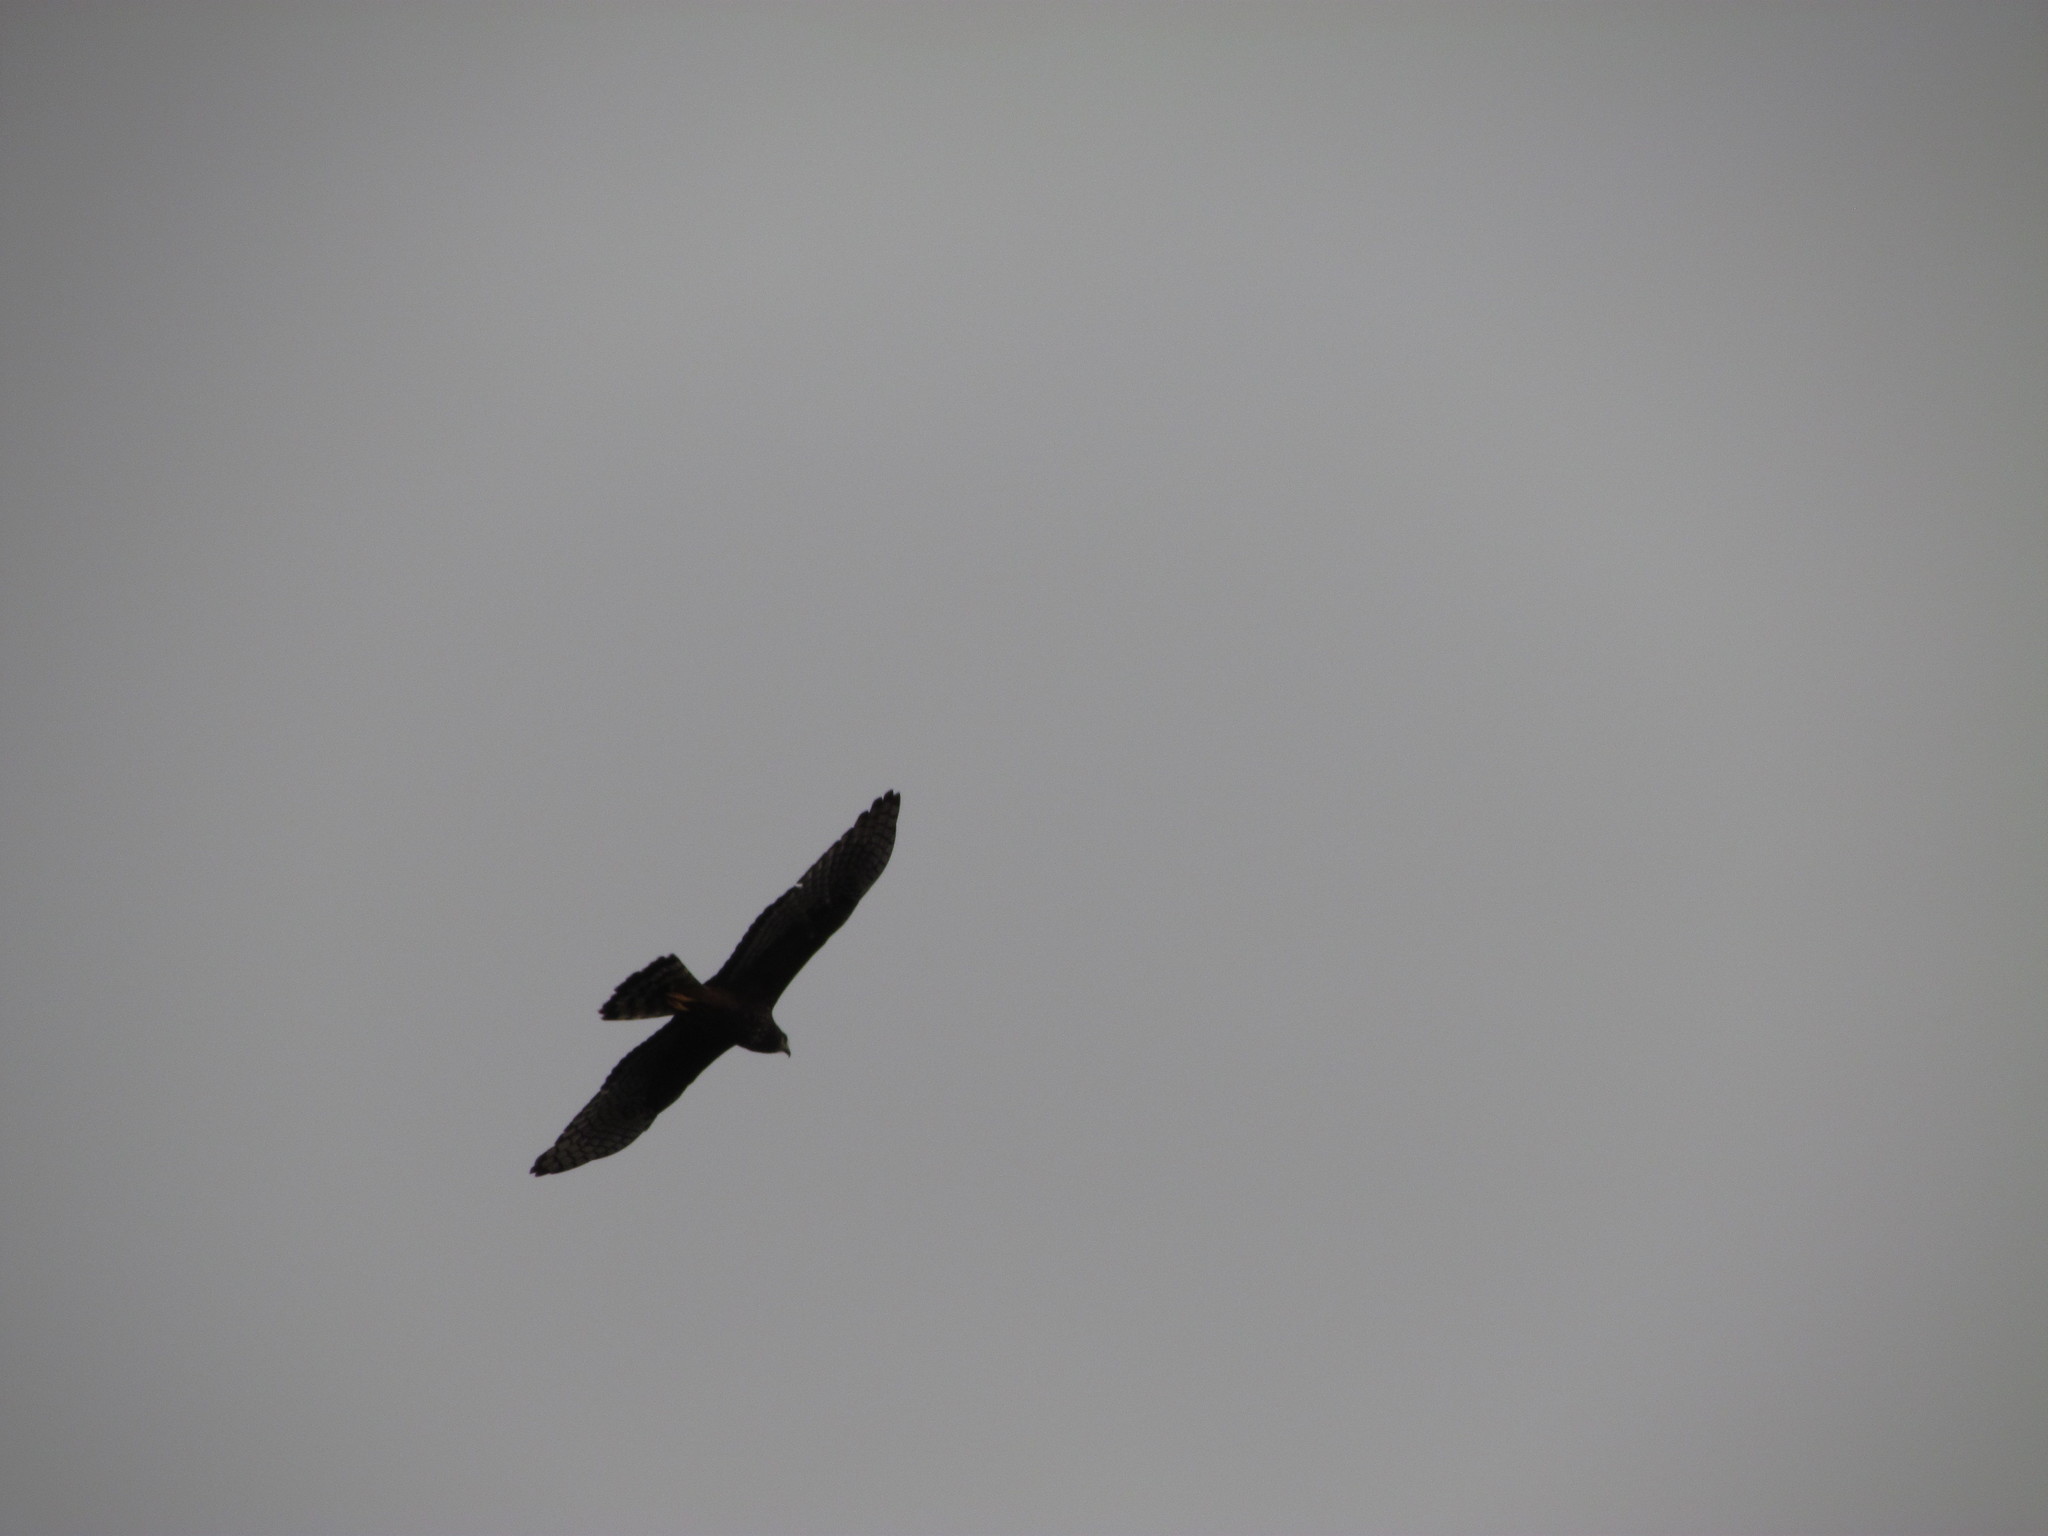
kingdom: Animalia
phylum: Chordata
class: Aves
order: Accipitriformes
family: Accipitridae
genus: Circus
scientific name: Circus buffoni
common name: Long-winged harrier
